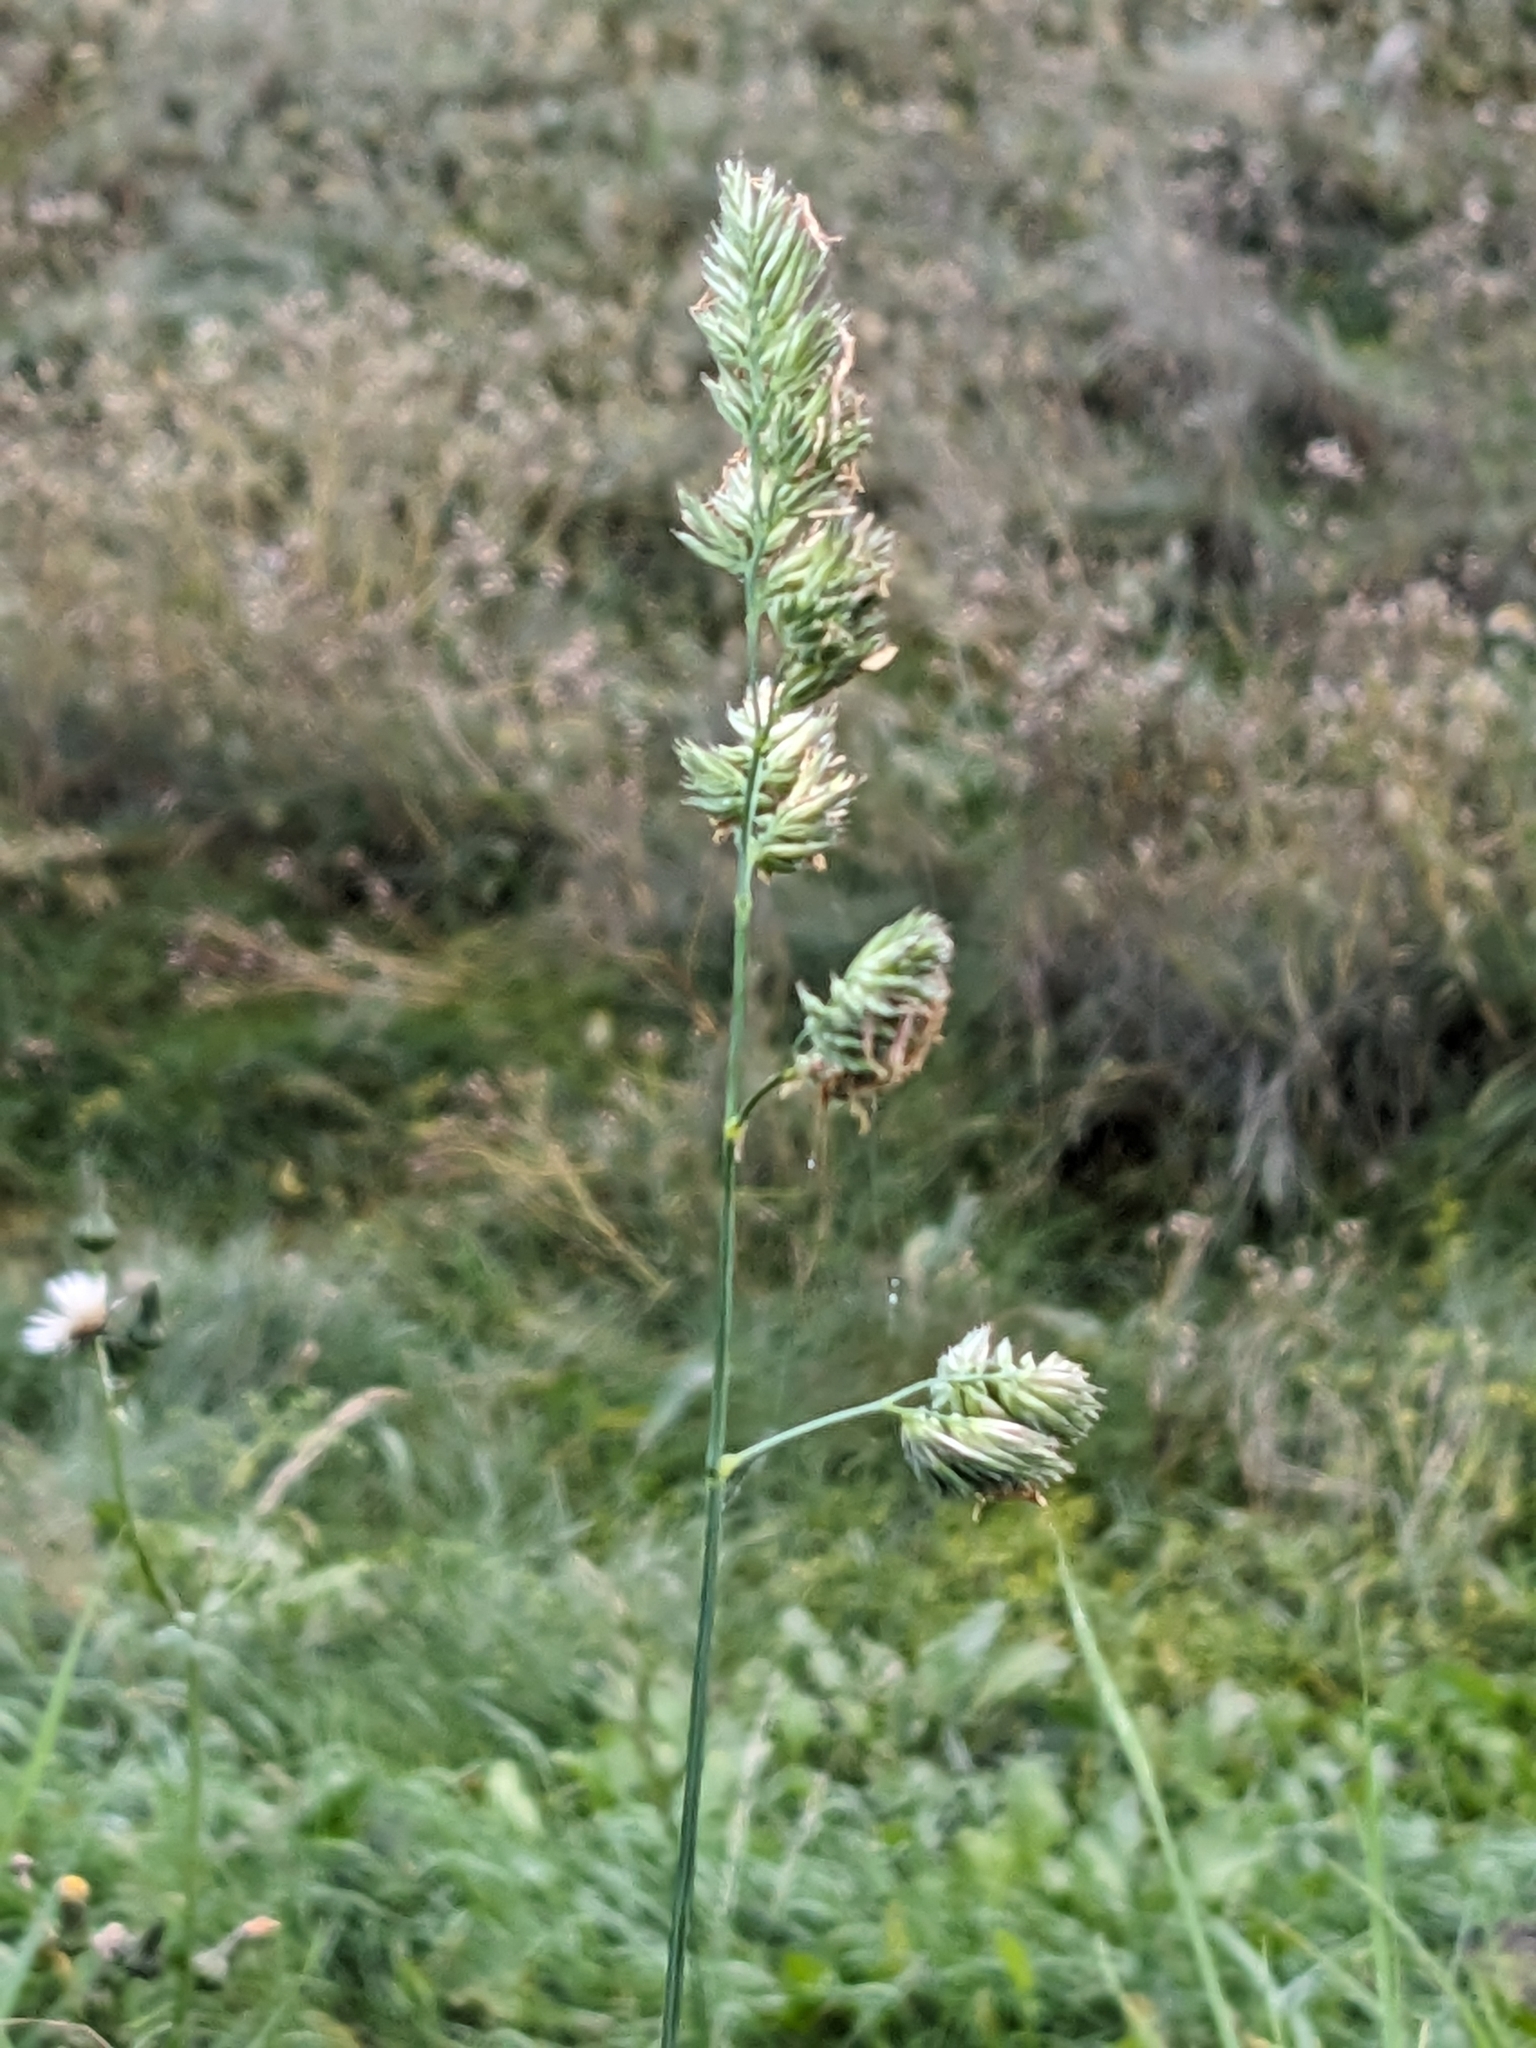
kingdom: Plantae
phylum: Tracheophyta
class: Liliopsida
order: Poales
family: Poaceae
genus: Dactylis
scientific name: Dactylis glomerata
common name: Orchardgrass
